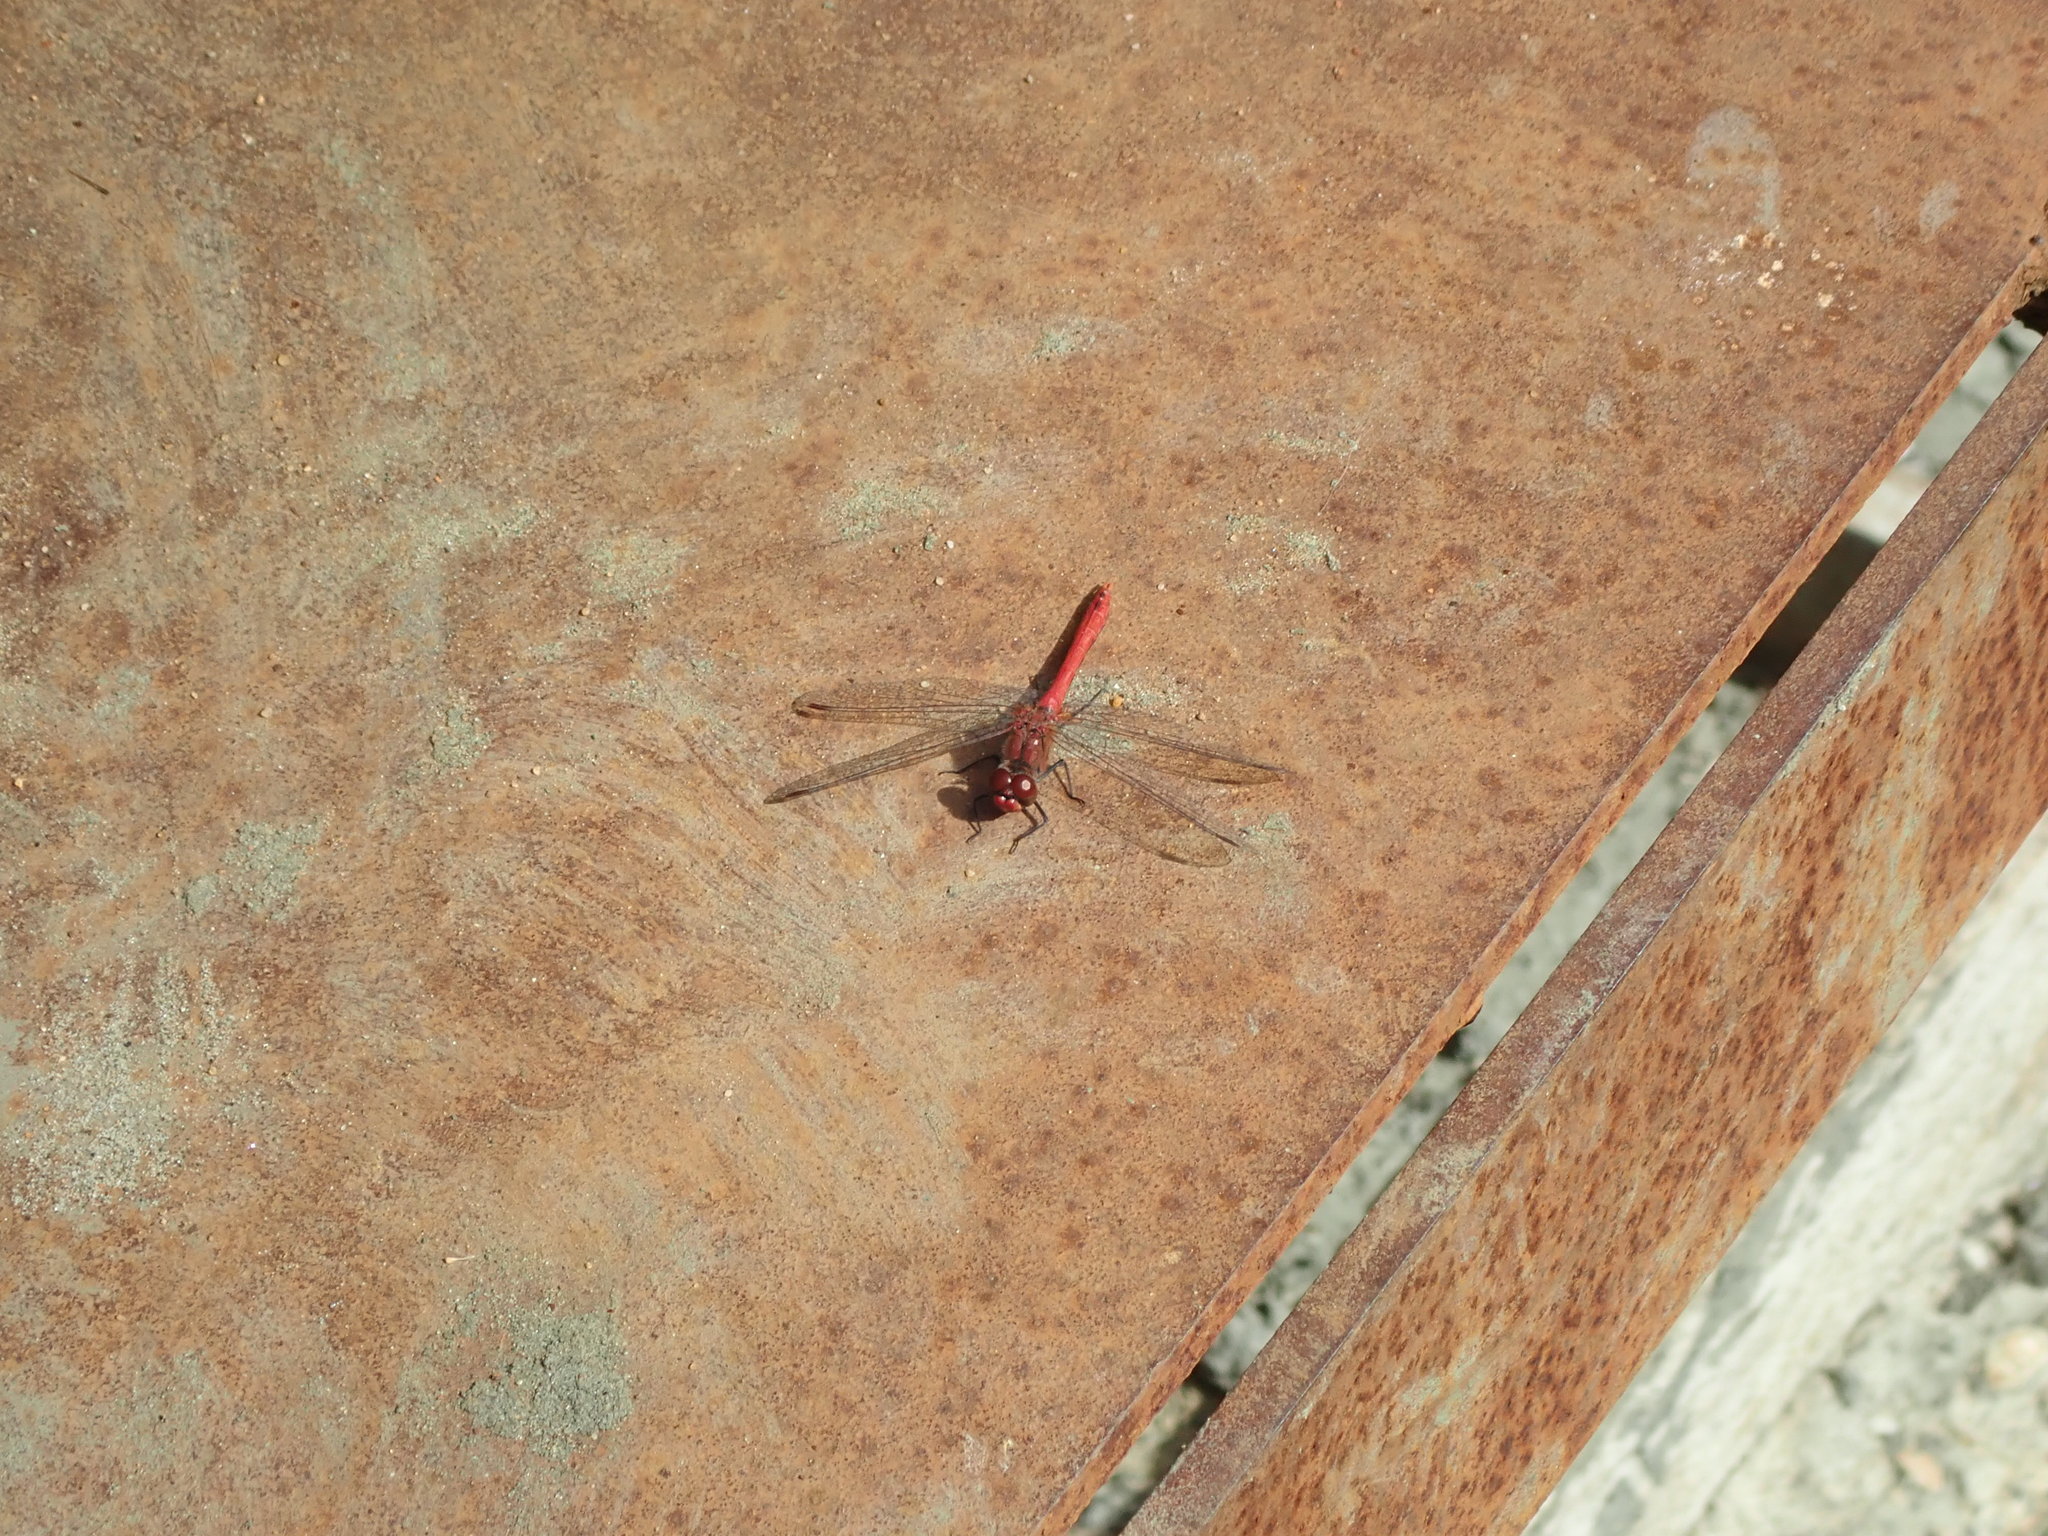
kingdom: Animalia
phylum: Arthropoda
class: Insecta
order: Odonata
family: Libellulidae
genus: Sympetrum
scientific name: Sympetrum sanguineum
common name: Ruddy darter
